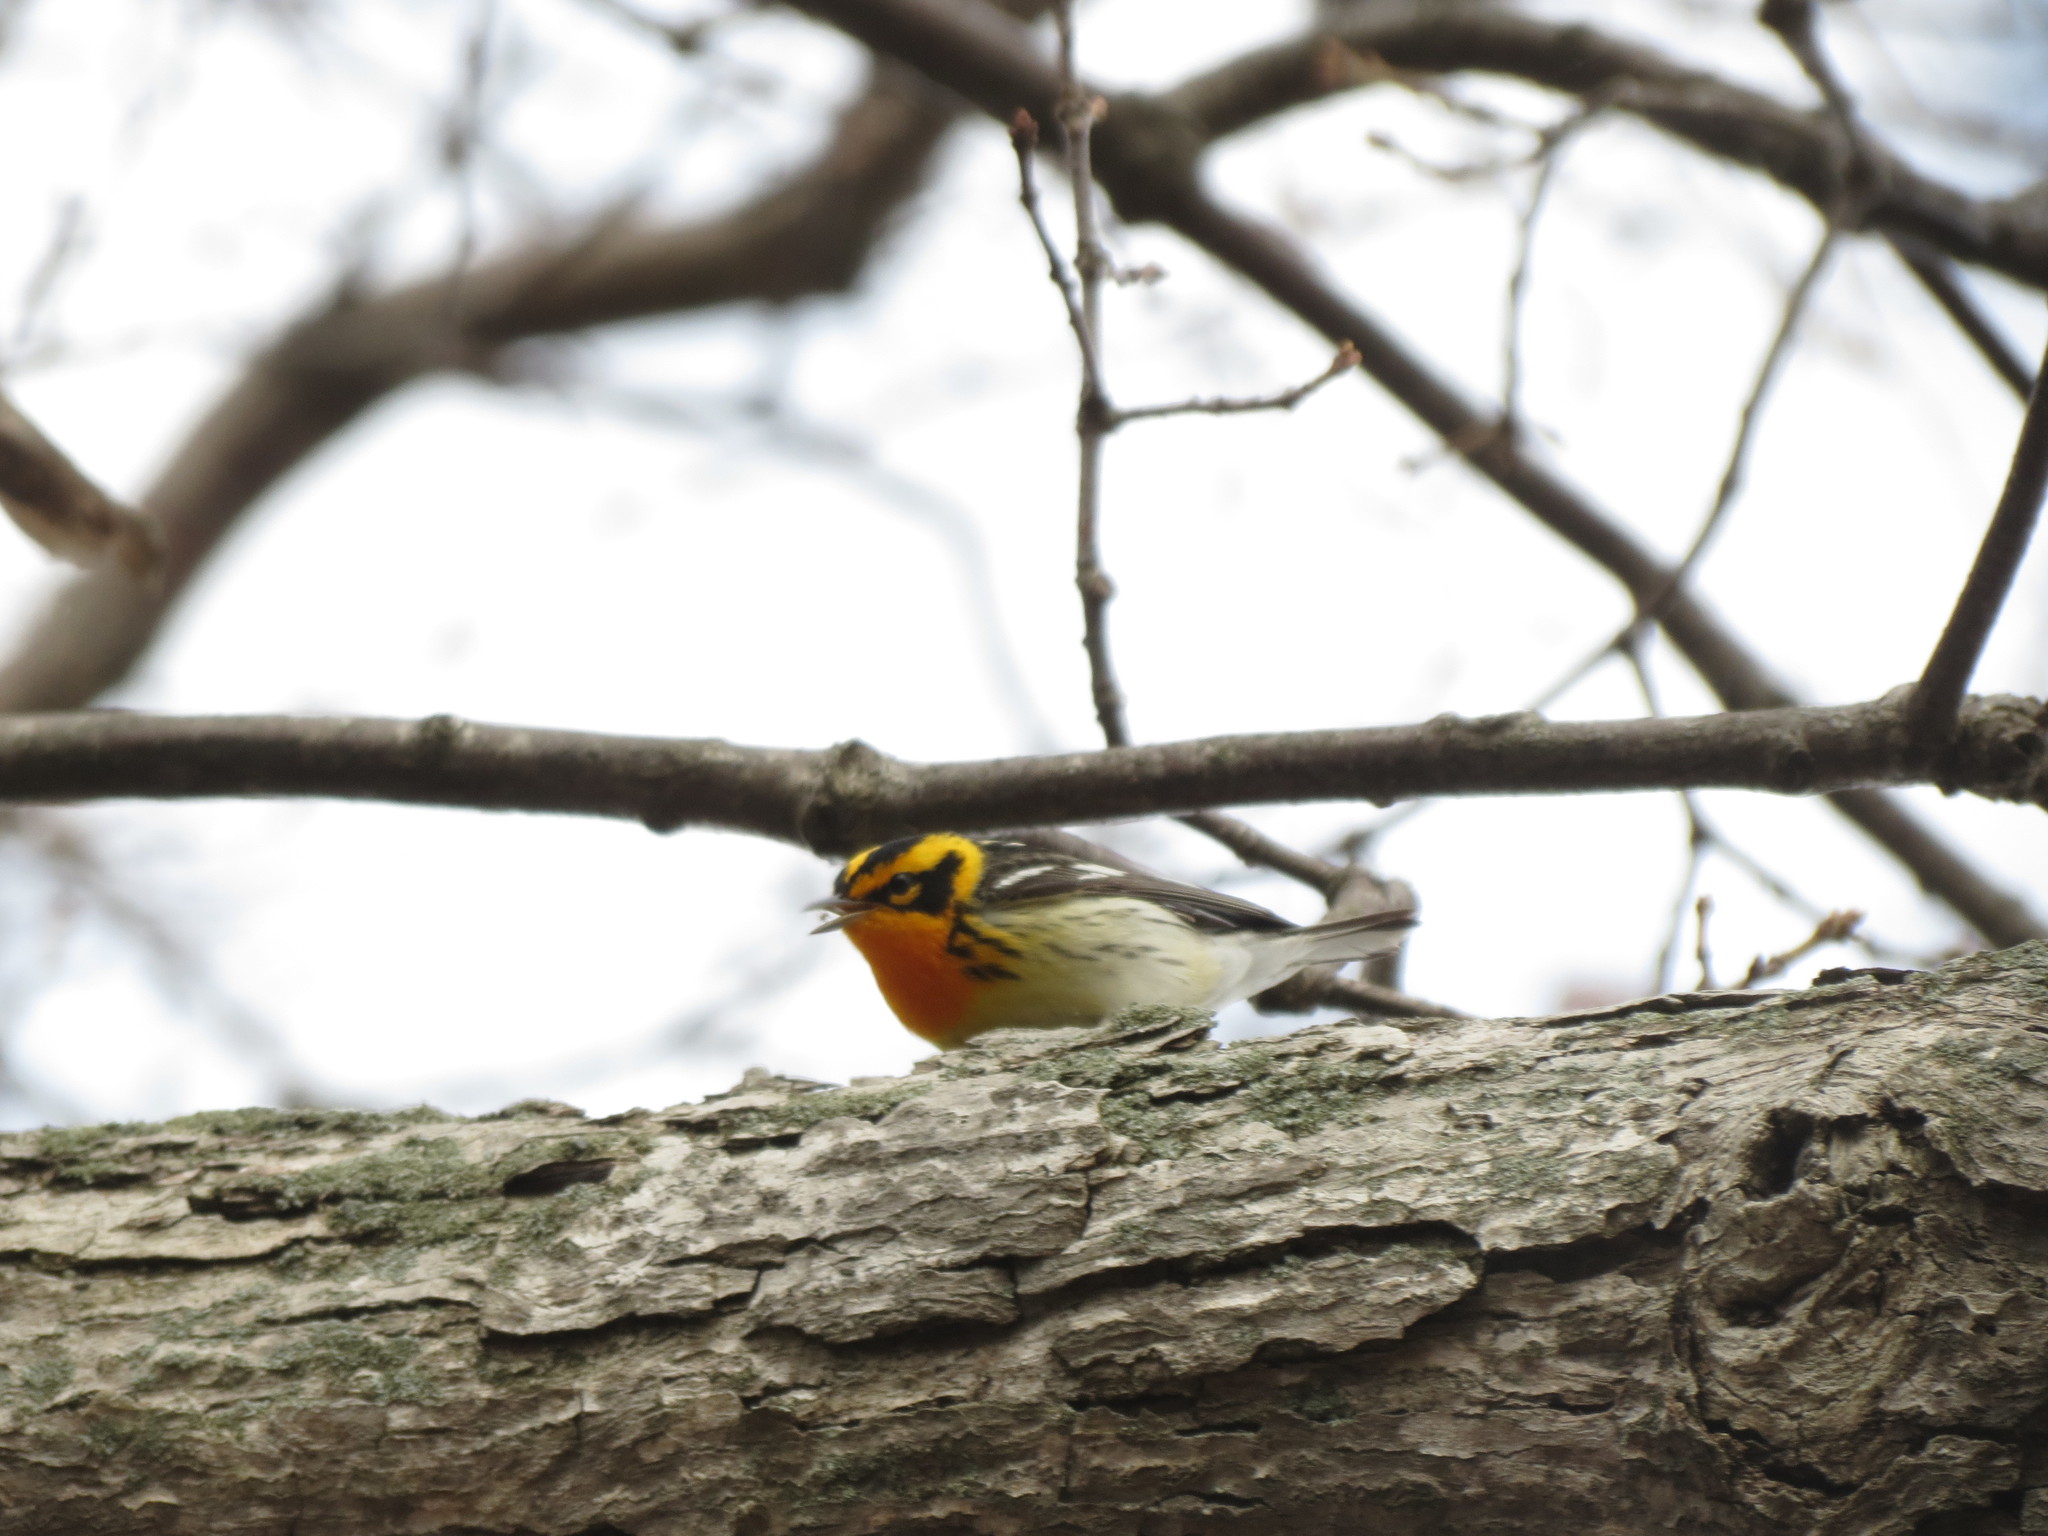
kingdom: Animalia
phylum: Chordata
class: Aves
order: Passeriformes
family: Parulidae
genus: Setophaga
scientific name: Setophaga fusca
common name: Blackburnian warbler
